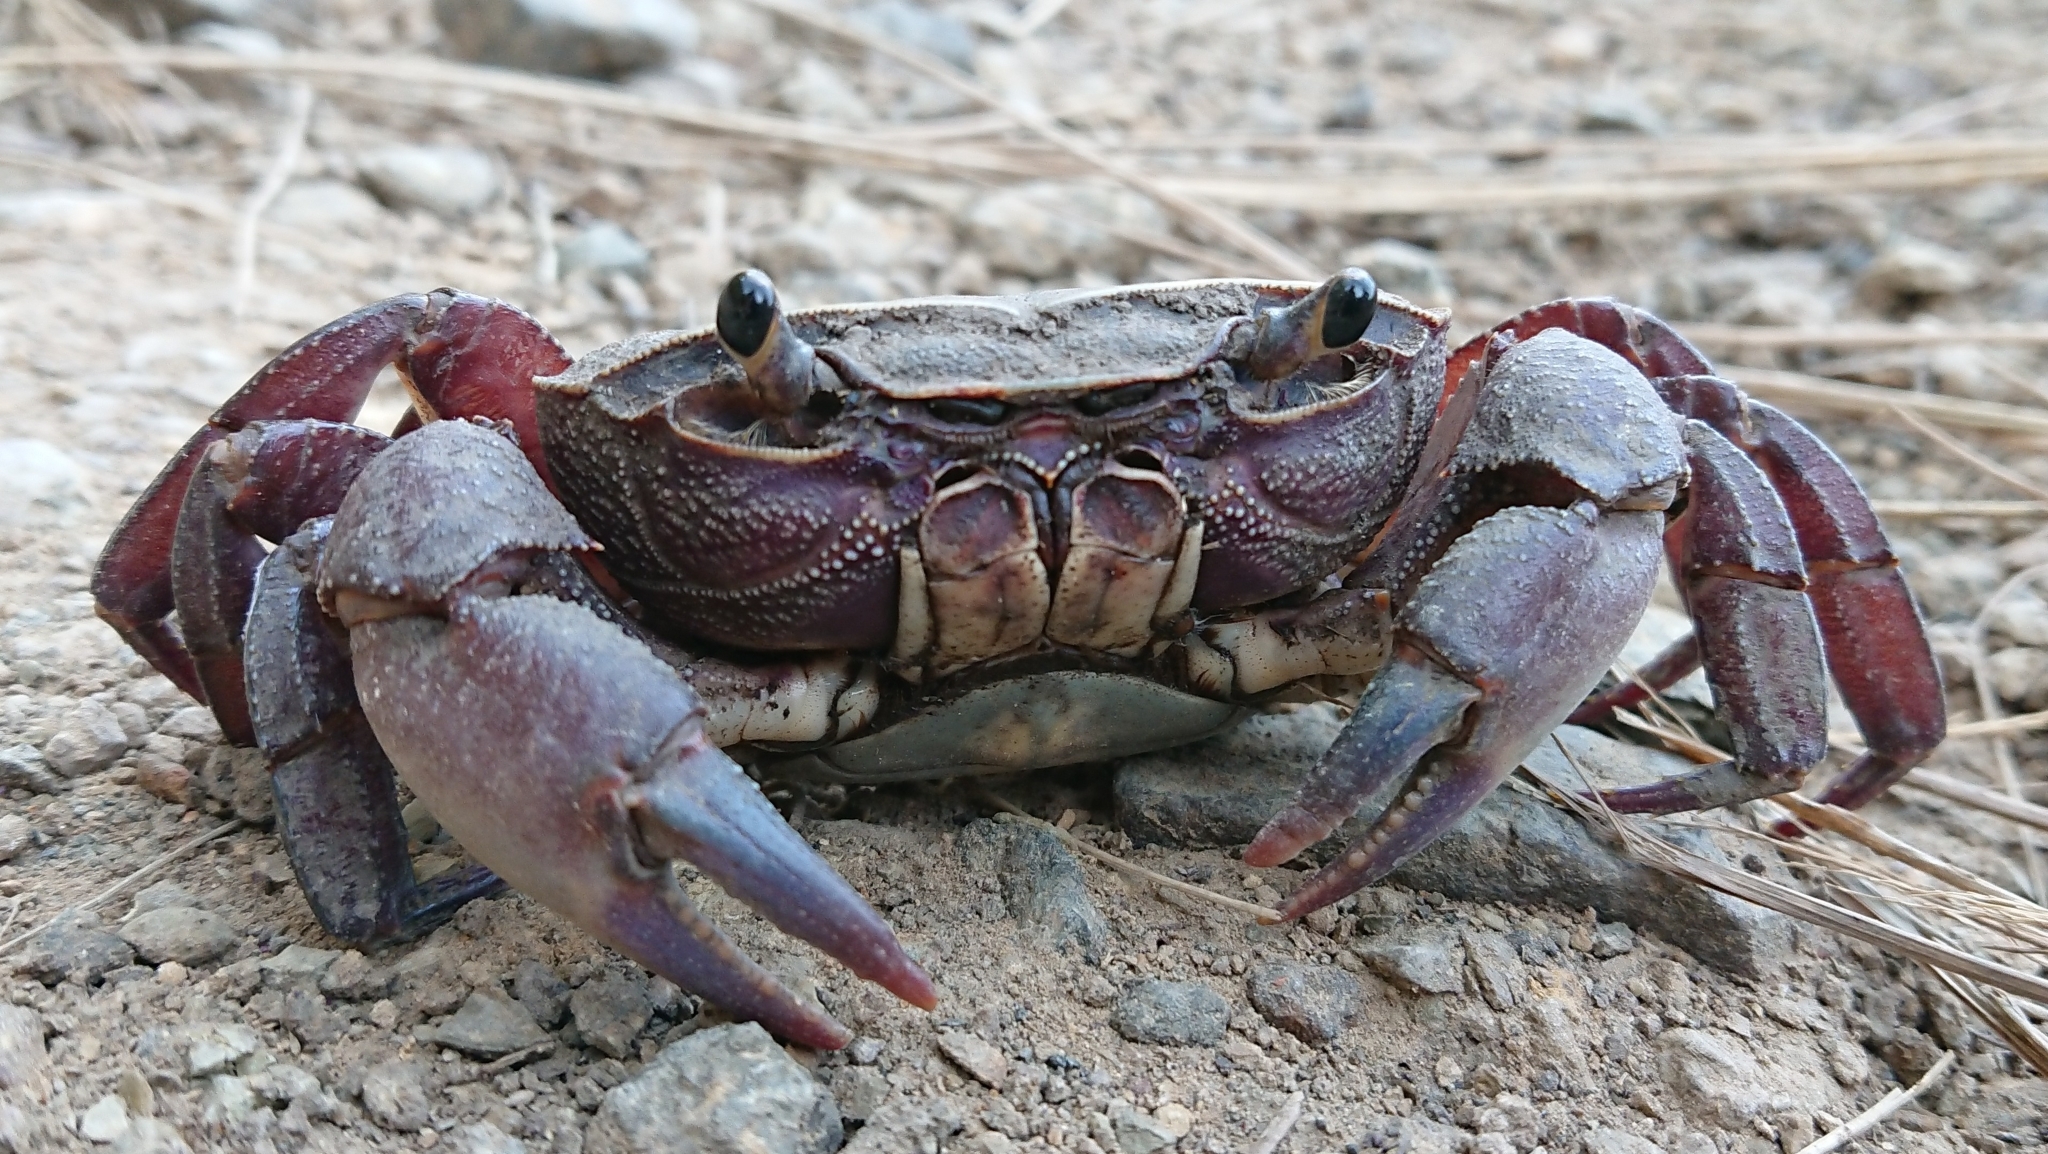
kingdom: Animalia
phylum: Arthropoda
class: Malacostraca
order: Decapoda
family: Potamonautidae
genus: Potamonautes
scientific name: Potamonautes sidneyi
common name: Natal river crab
